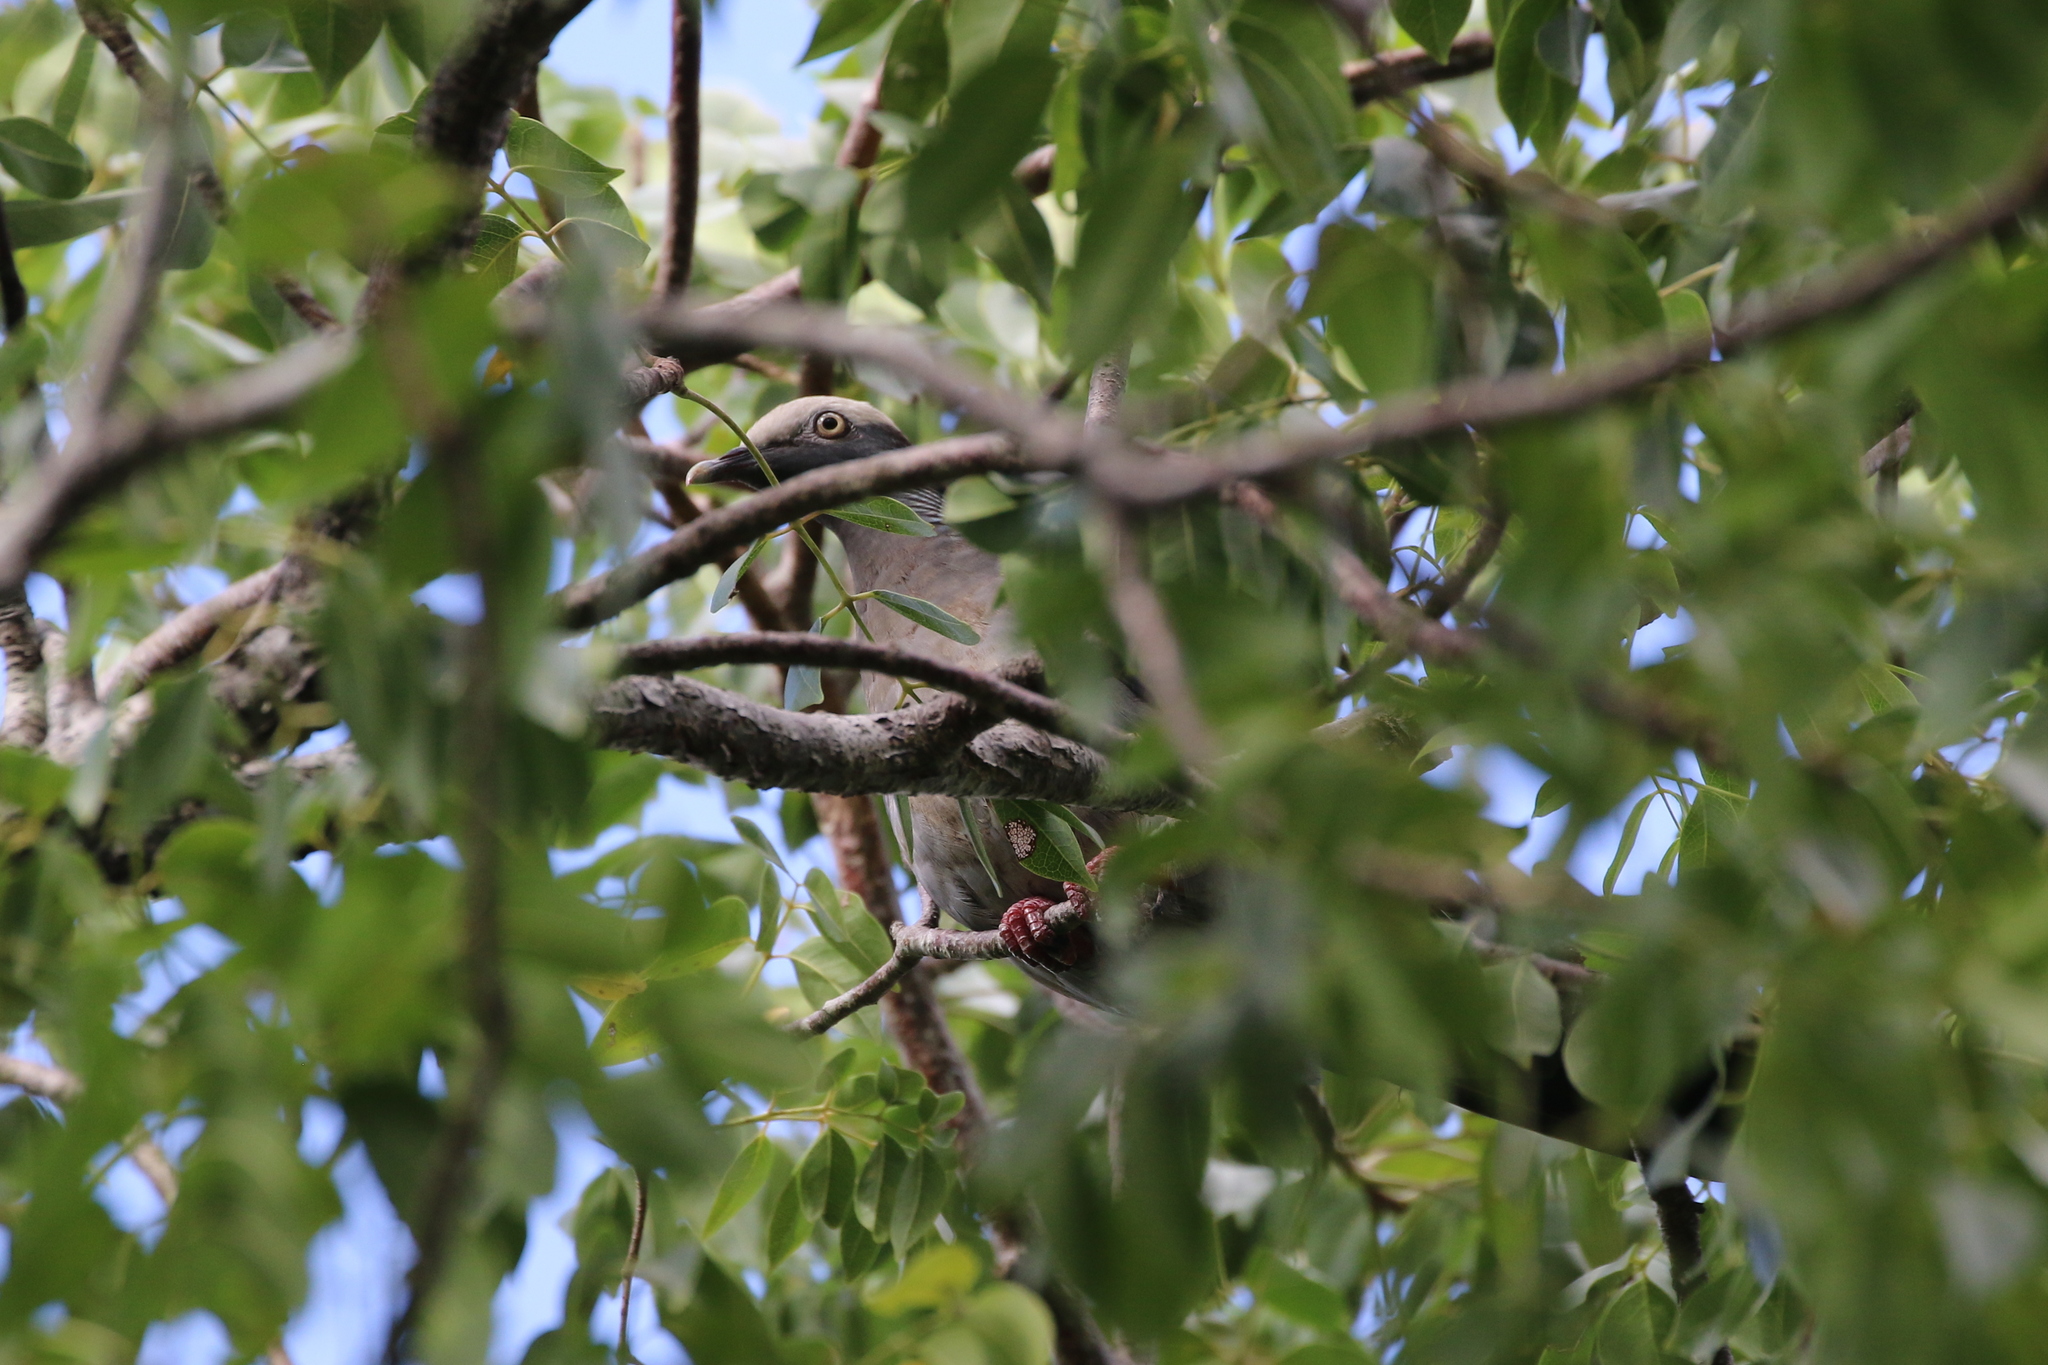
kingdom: Animalia
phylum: Chordata
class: Aves
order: Columbiformes
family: Columbidae
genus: Patagioenas
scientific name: Patagioenas leucocephala
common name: White-crowned pigeon
